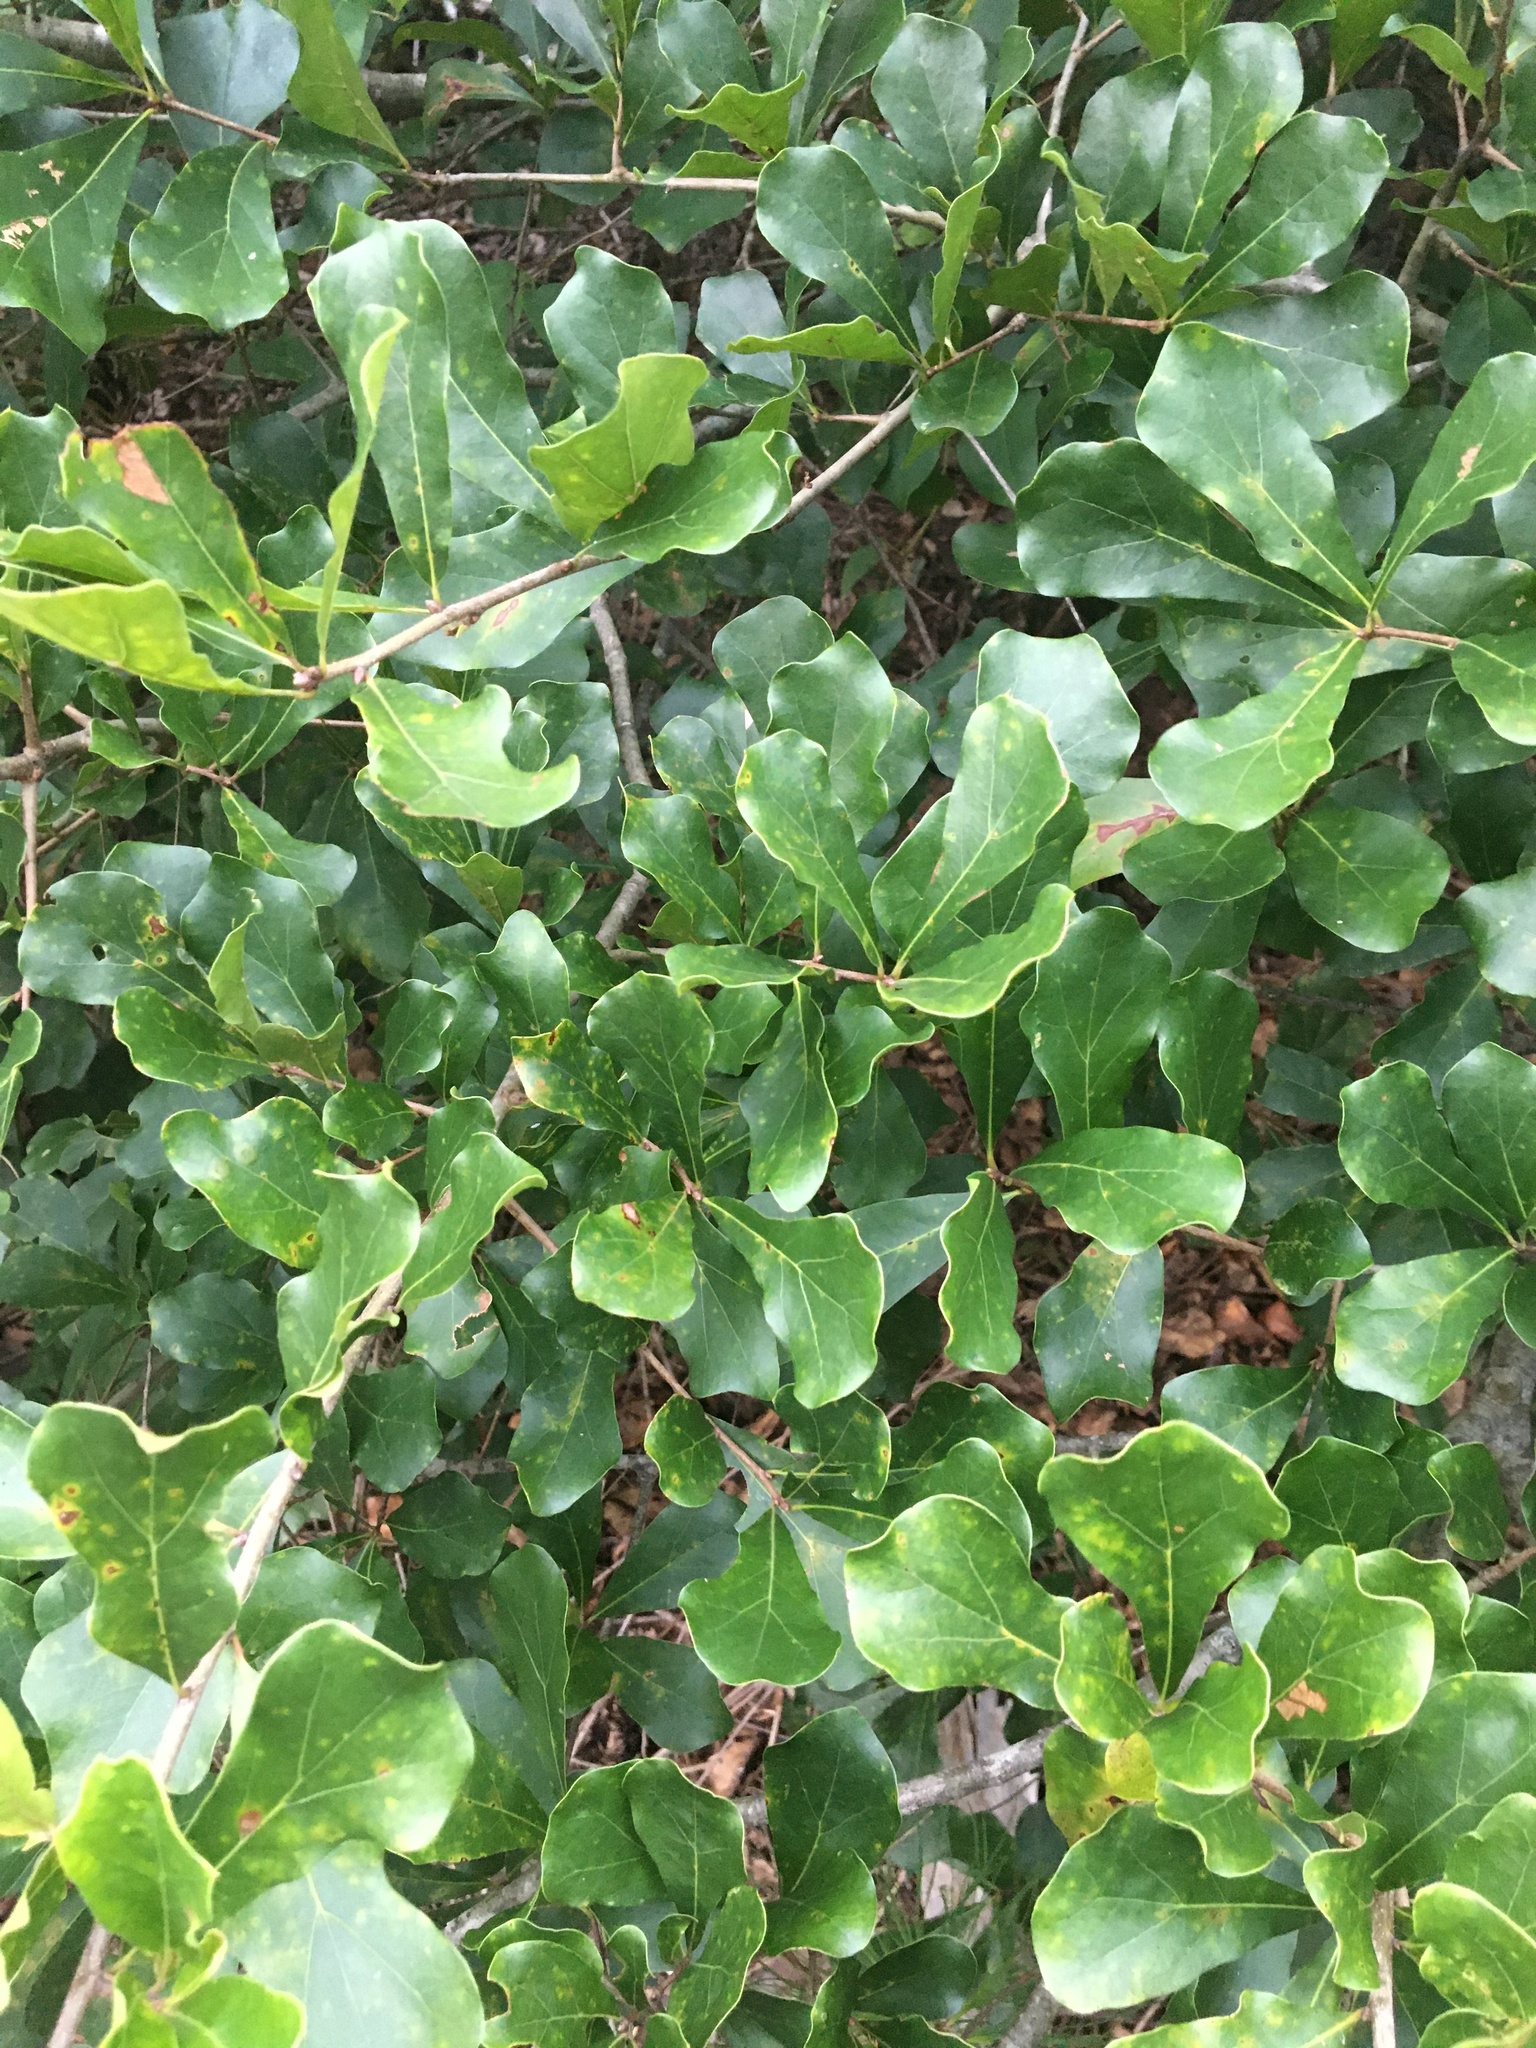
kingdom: Plantae
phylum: Tracheophyta
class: Magnoliopsida
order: Fagales
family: Fagaceae
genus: Quercus
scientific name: Quercus nigra
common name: Water oak
